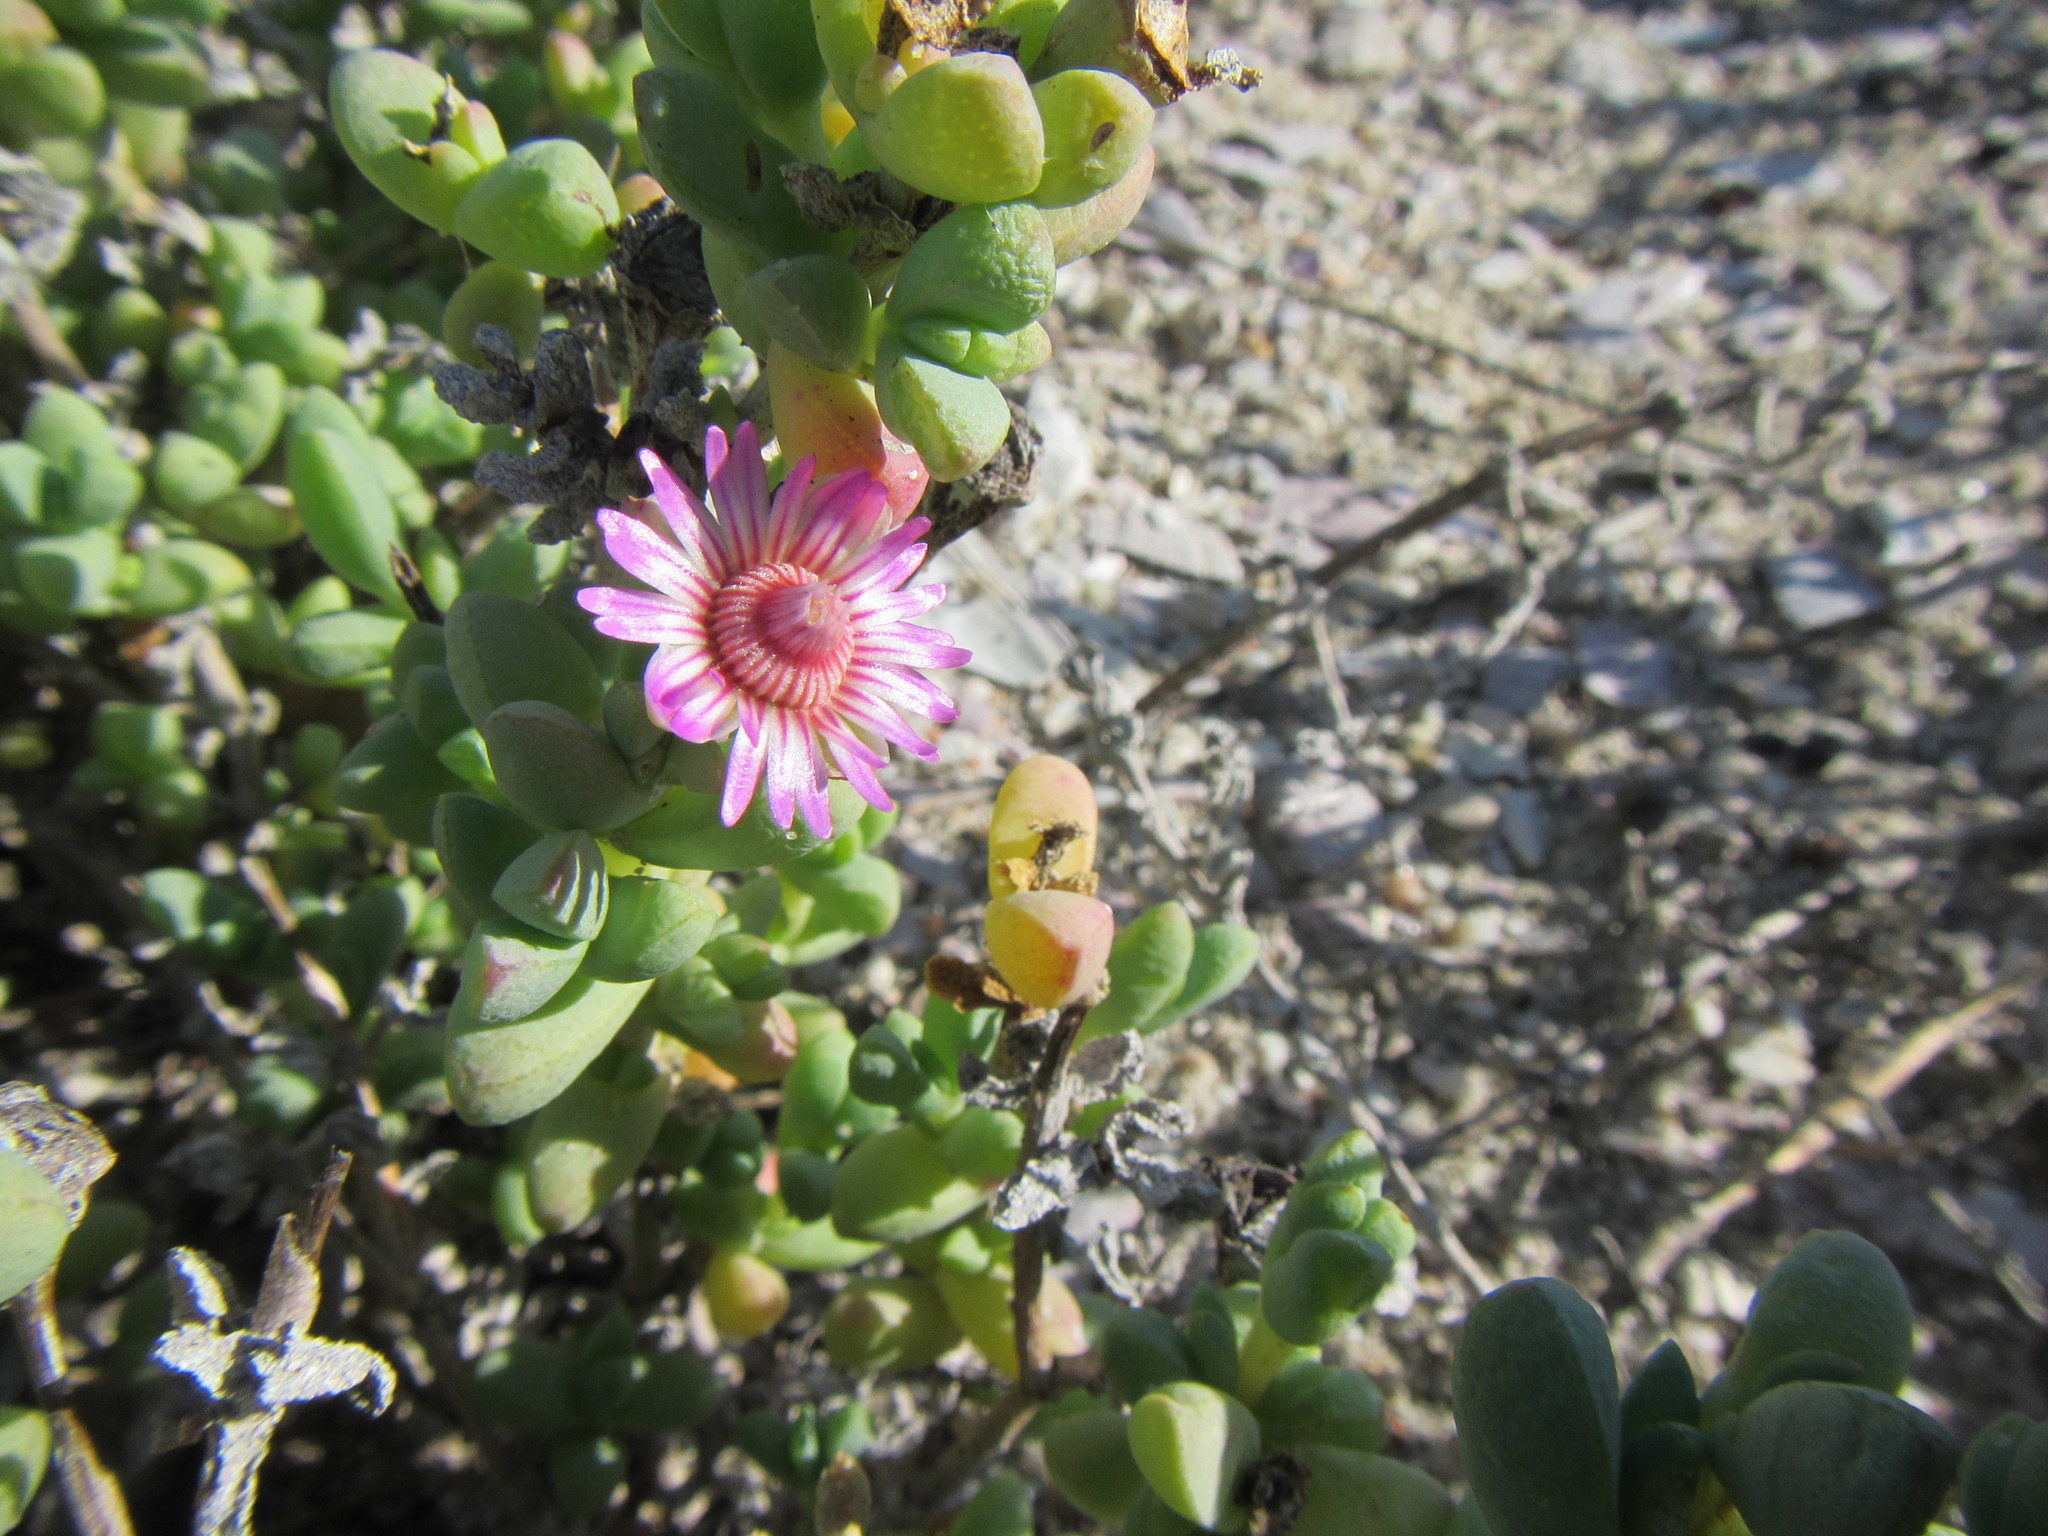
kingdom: Plantae
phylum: Tracheophyta
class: Magnoliopsida
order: Caryophyllales
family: Aizoaceae
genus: Amphibolia
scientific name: Amphibolia laevis
